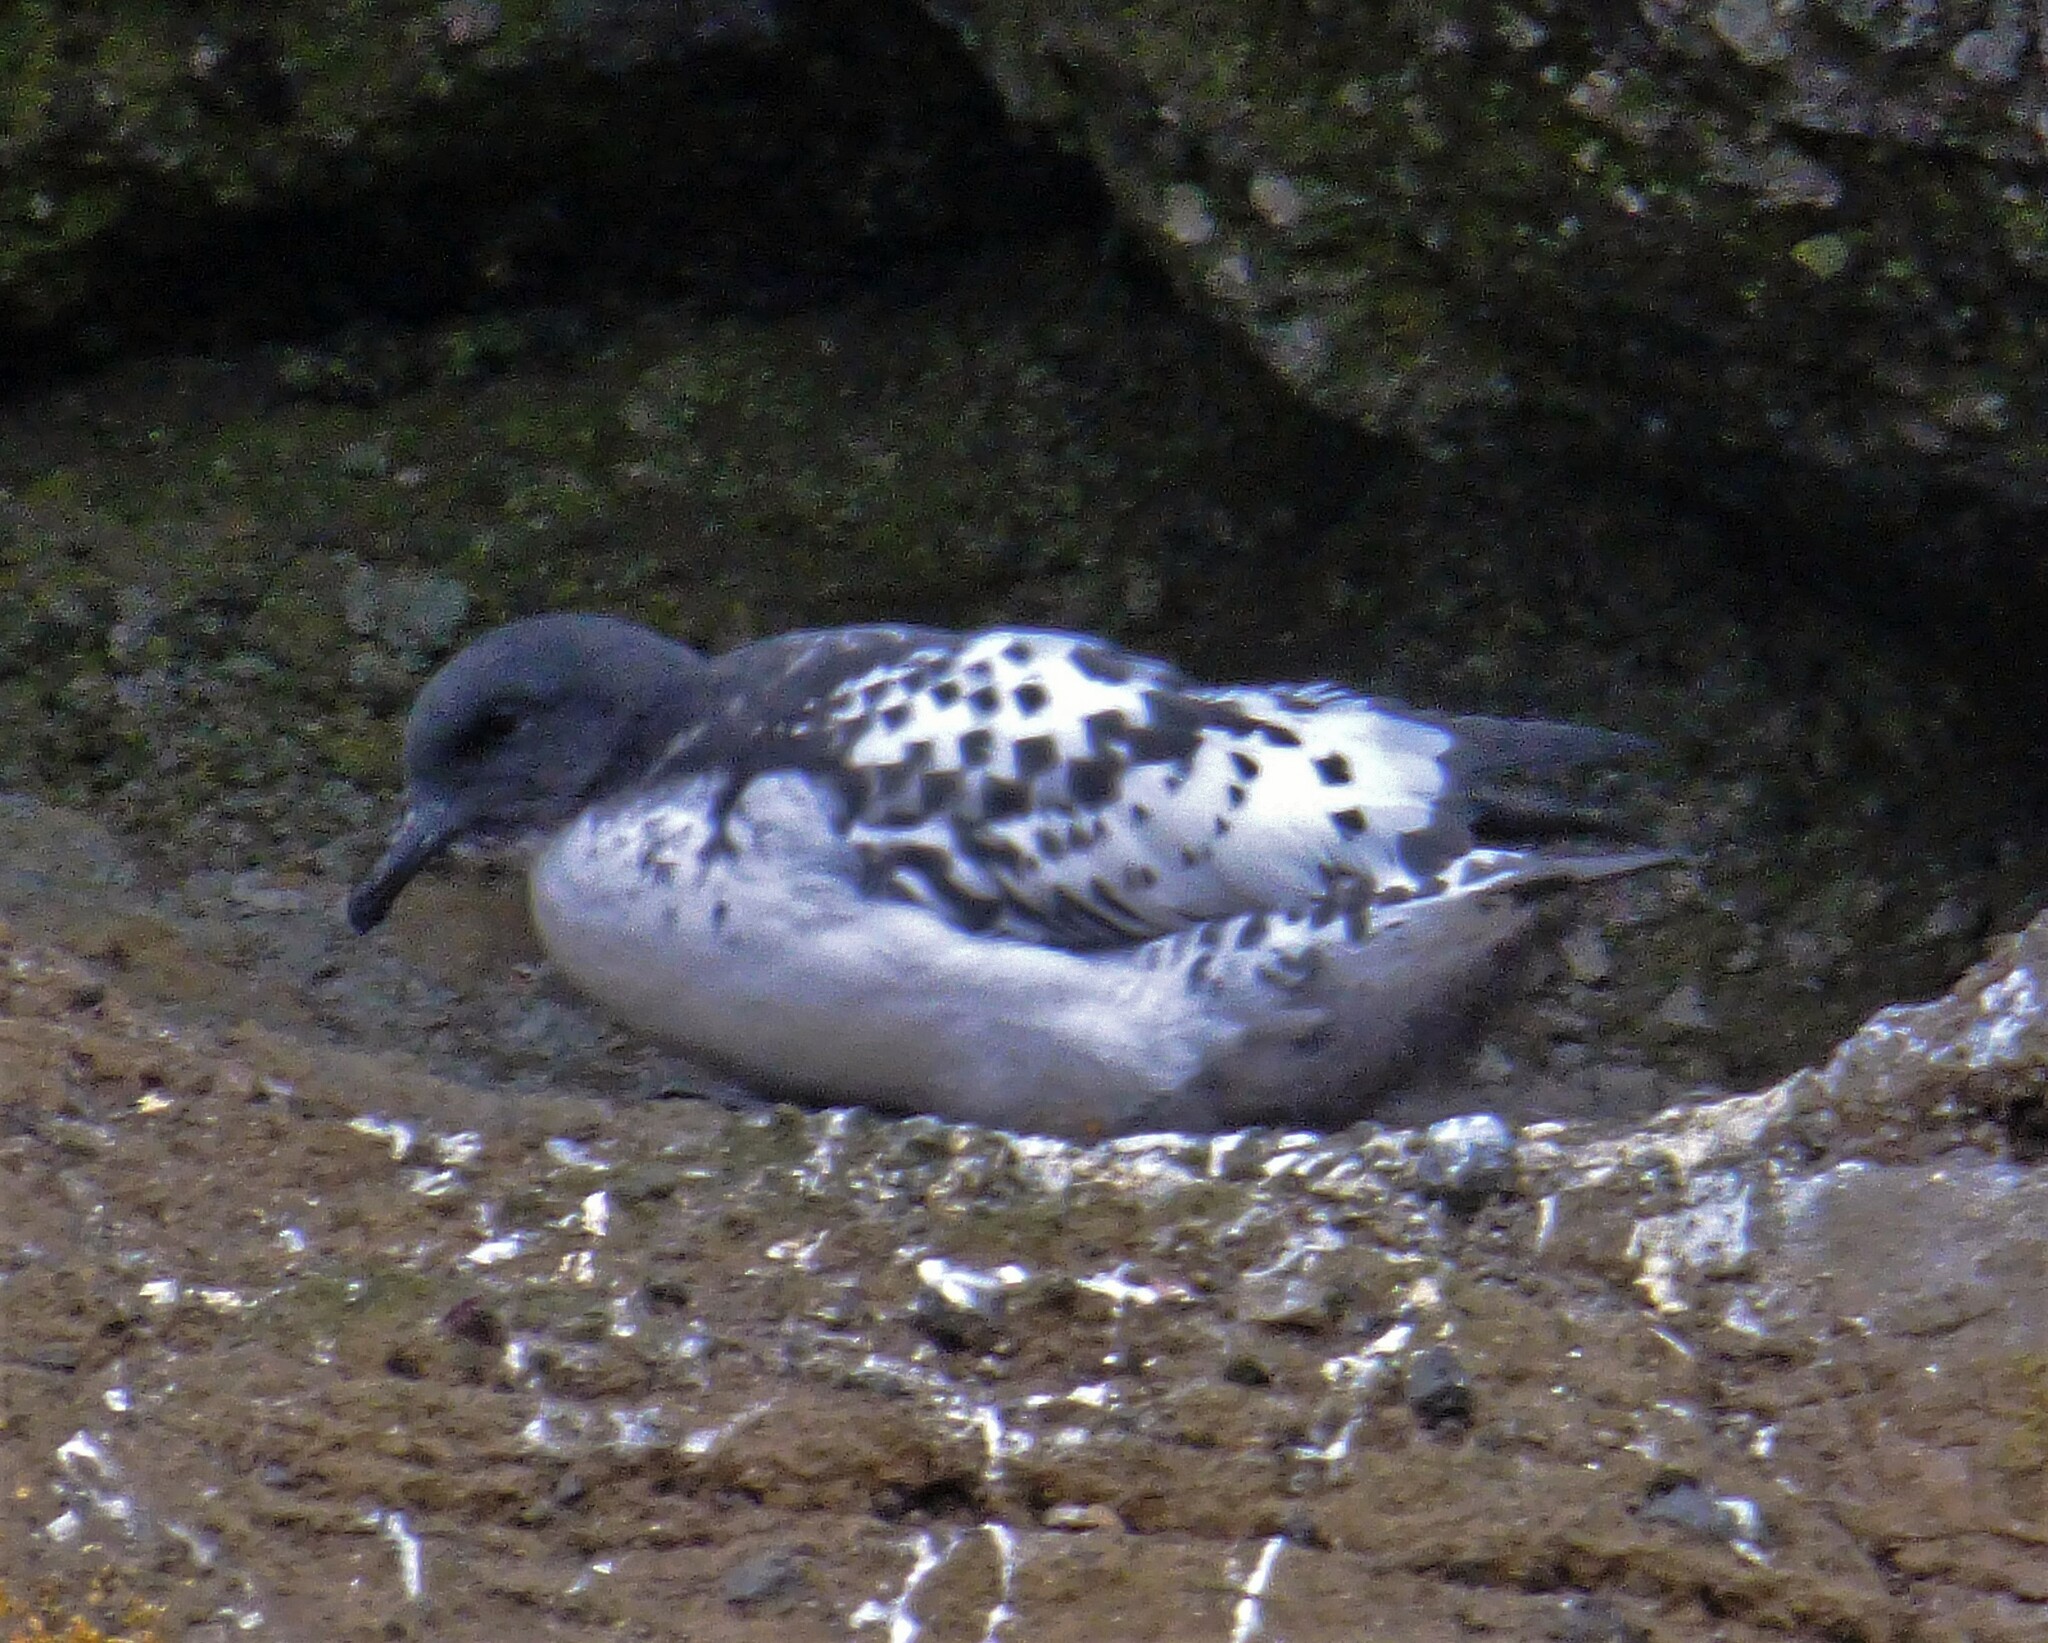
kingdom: Animalia
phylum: Chordata
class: Aves
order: Procellariiformes
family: Procellariidae
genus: Daption
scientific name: Daption capense
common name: Cape petrel
